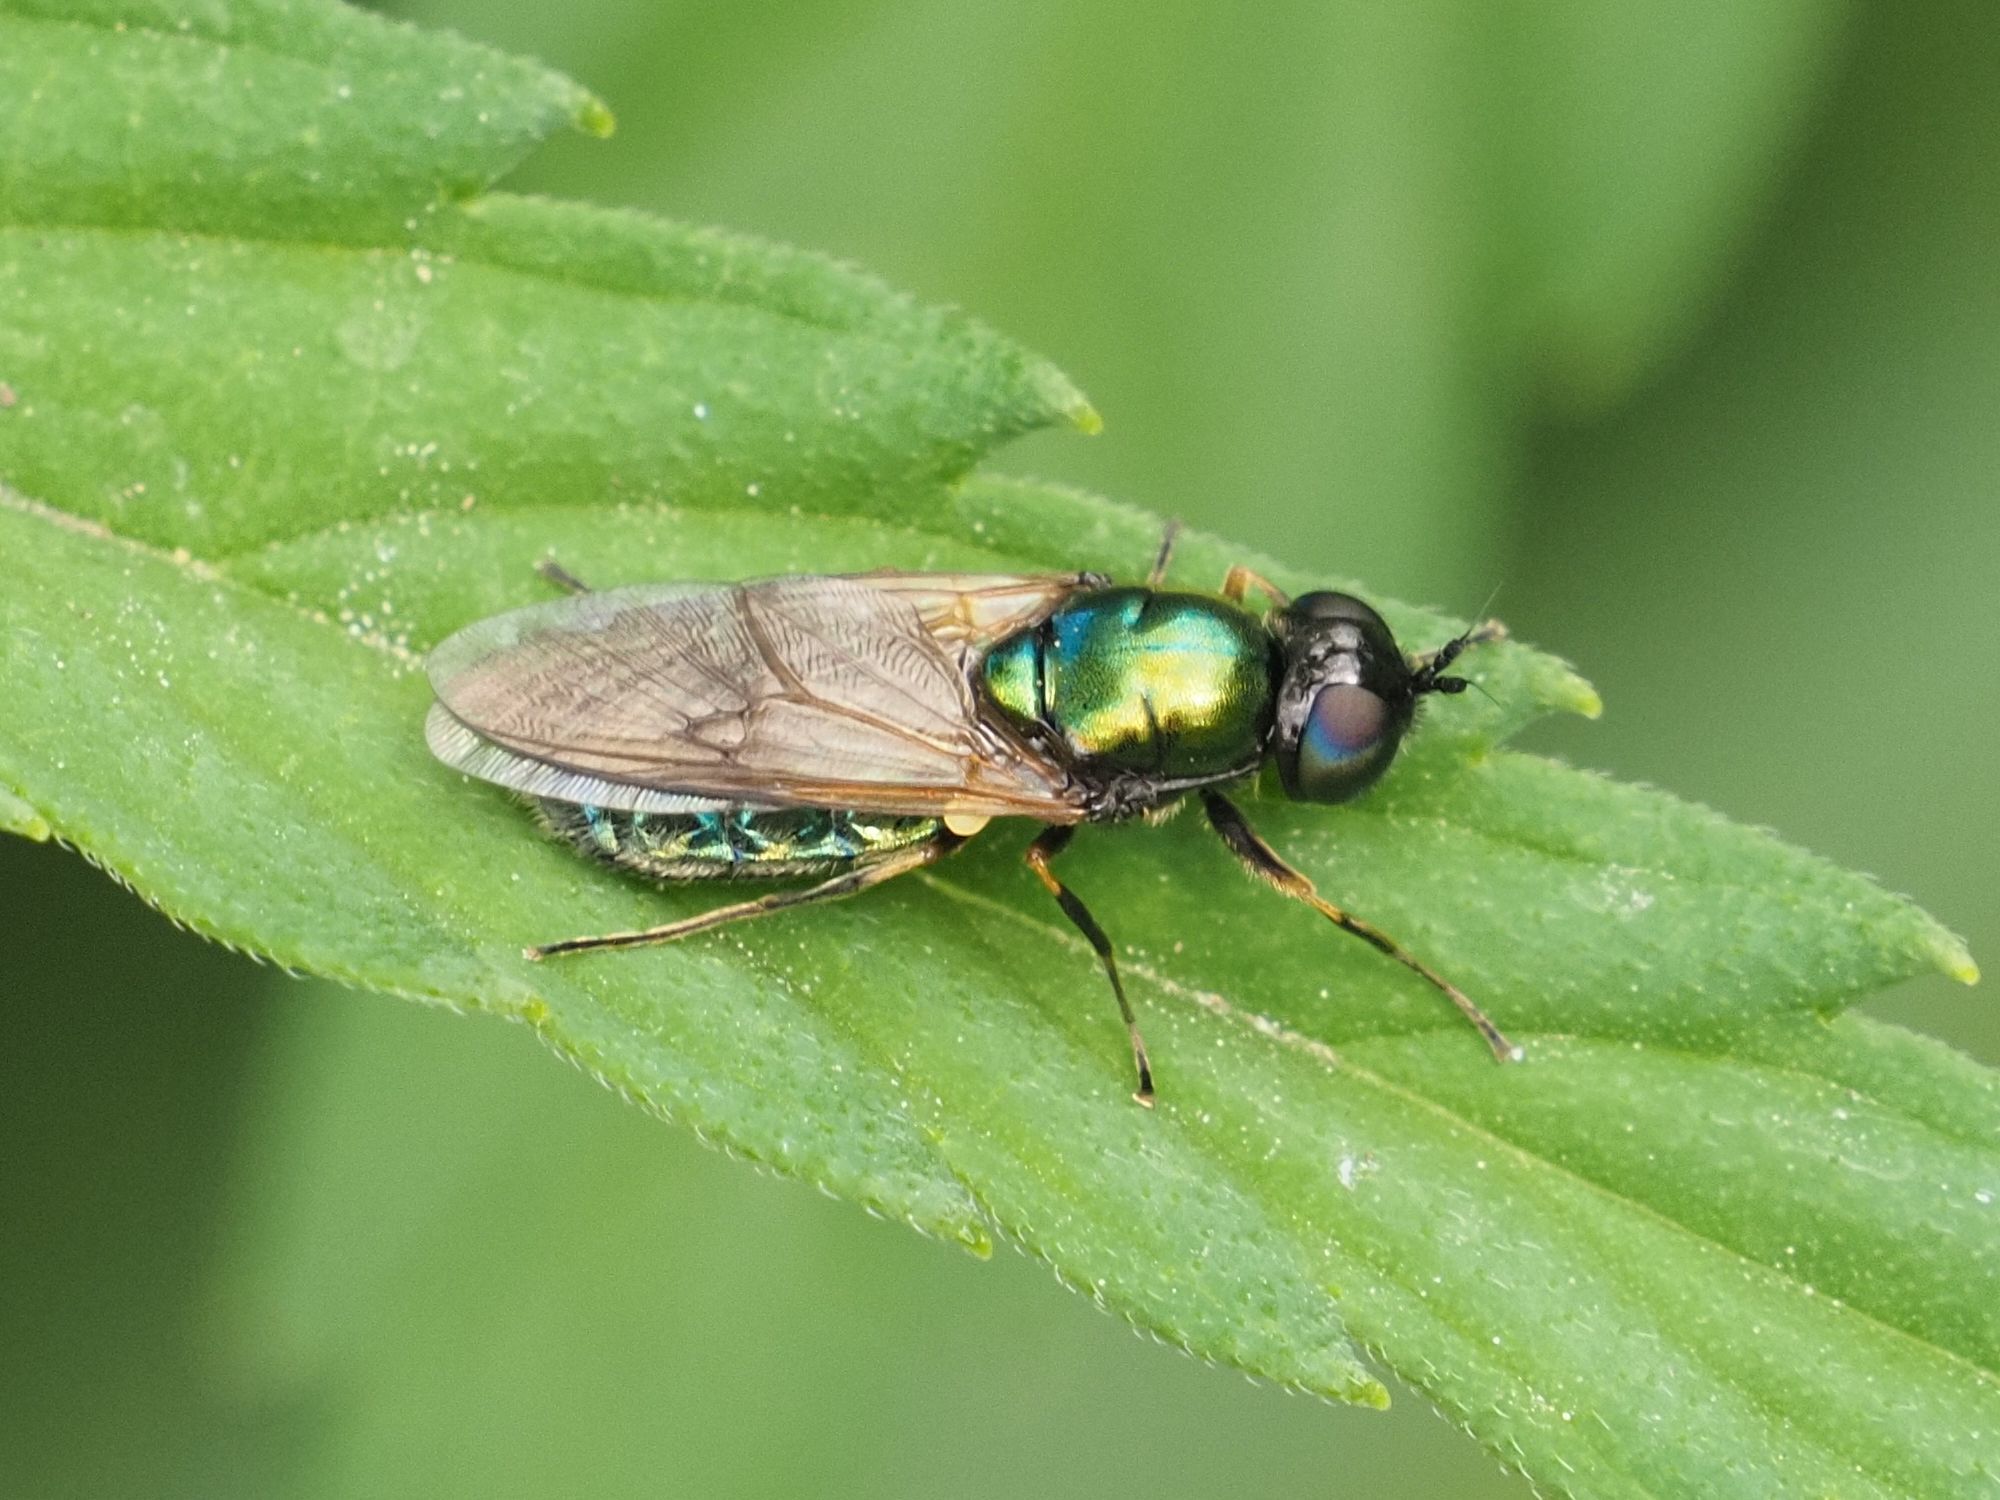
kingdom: Animalia
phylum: Arthropoda
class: Insecta
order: Diptera
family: Stratiomyidae
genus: Chloromyia
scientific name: Chloromyia formosa
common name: Soldier fly
